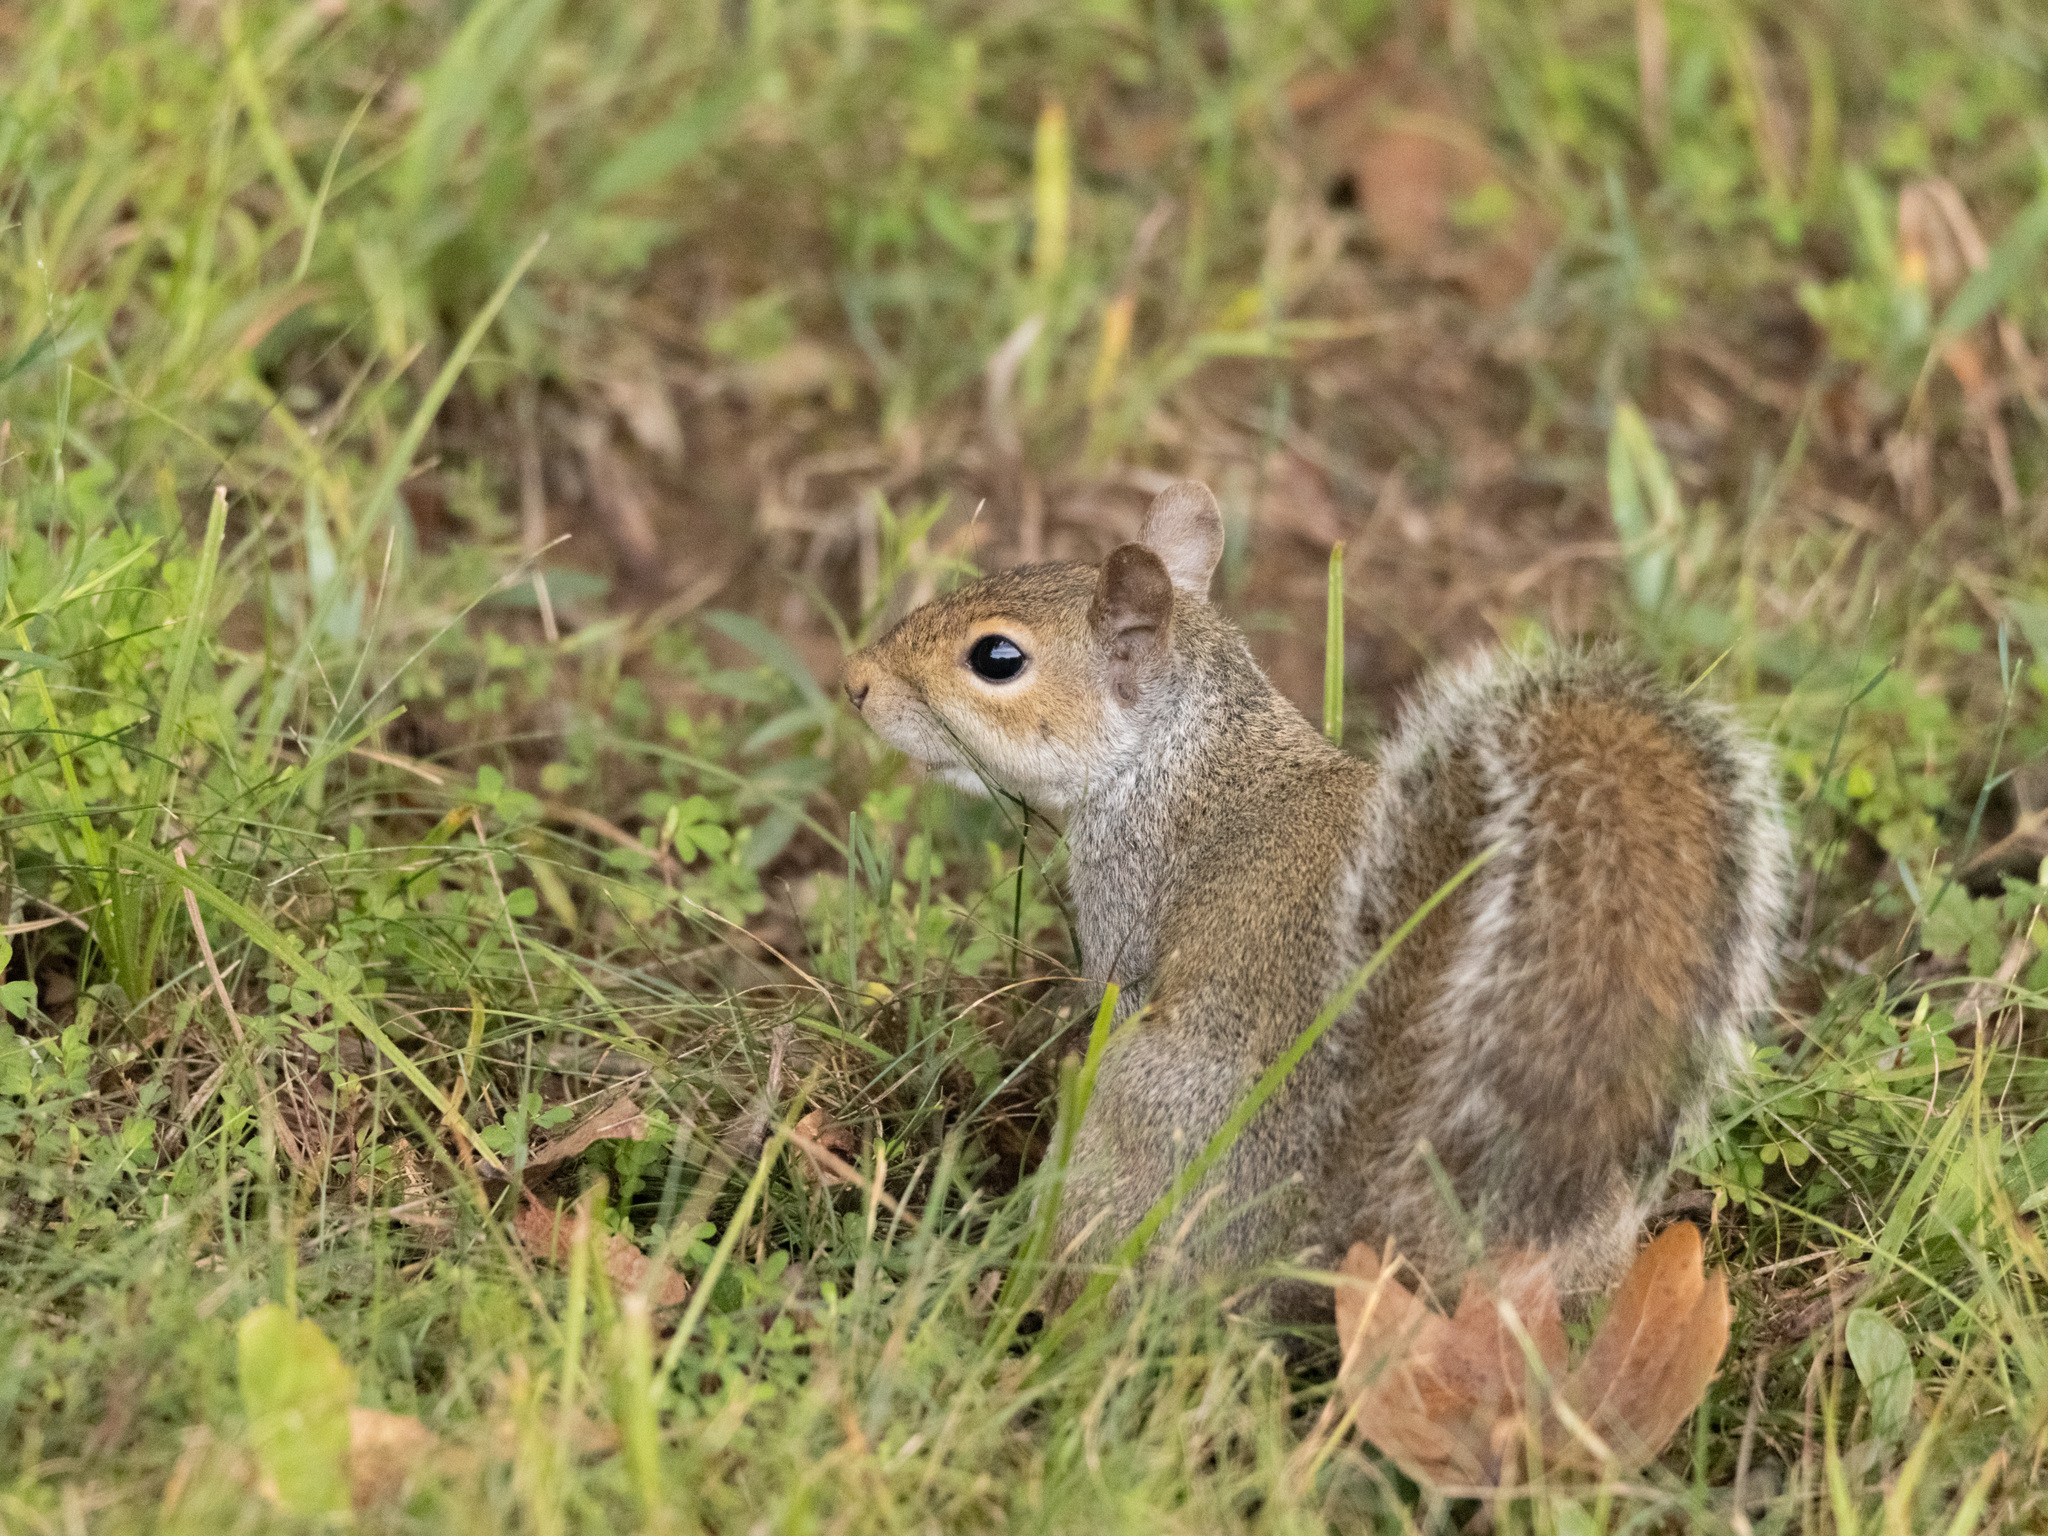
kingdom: Animalia
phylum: Chordata
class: Mammalia
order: Rodentia
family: Sciuridae
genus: Sciurus
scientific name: Sciurus carolinensis
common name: Eastern gray squirrel
